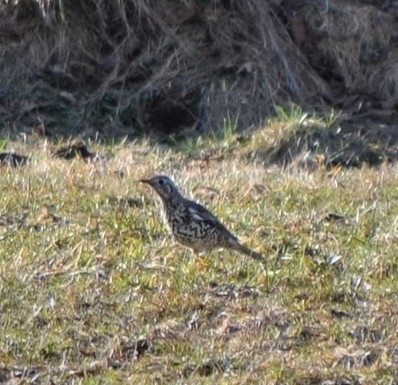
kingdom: Animalia
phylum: Chordata
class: Aves
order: Passeriformes
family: Turdidae
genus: Turdus
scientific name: Turdus viscivorus
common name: Mistle thrush
